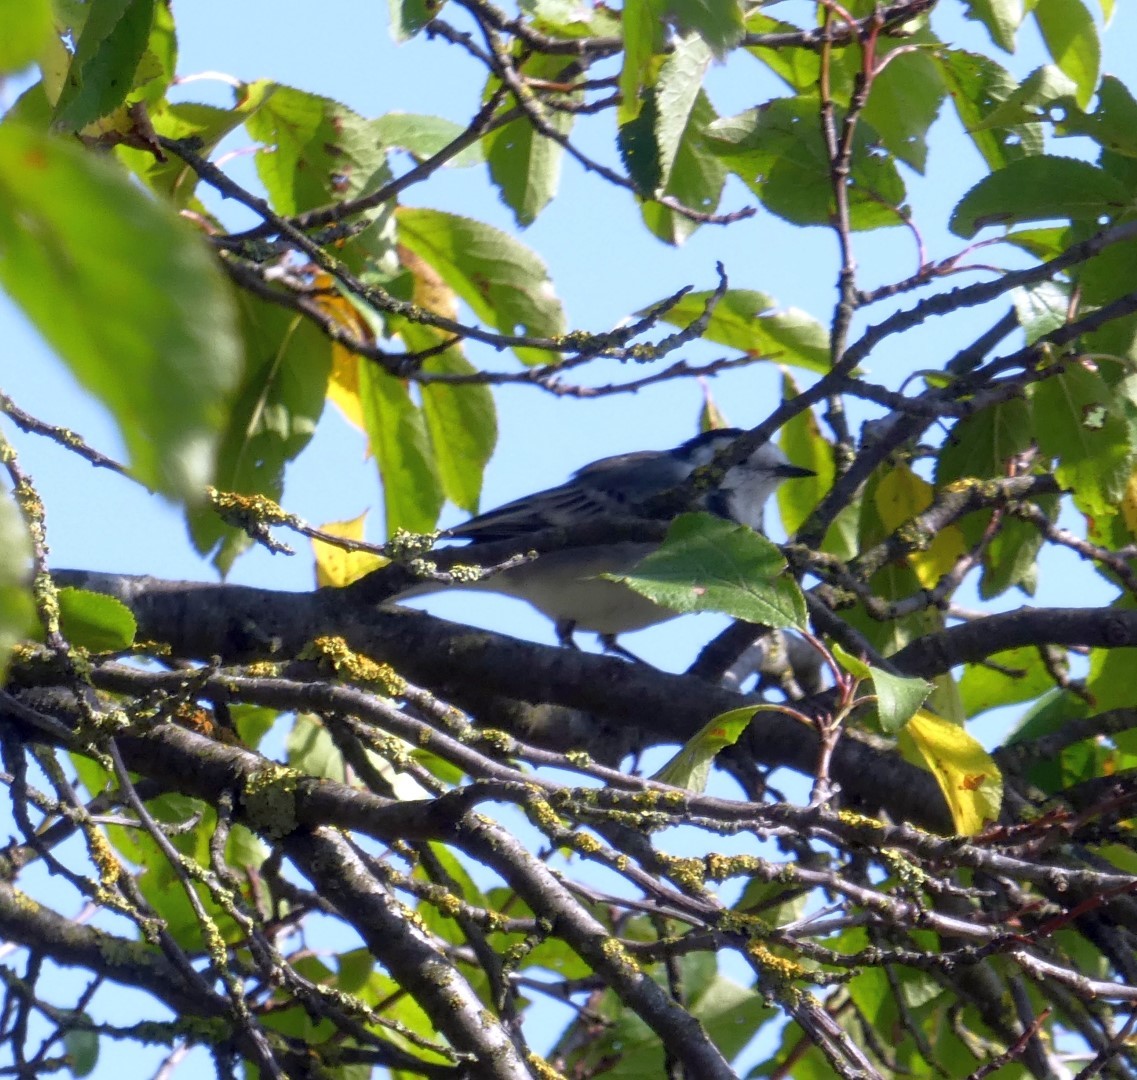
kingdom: Animalia
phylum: Chordata
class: Aves
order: Passeriformes
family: Motacillidae
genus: Motacilla
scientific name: Motacilla alba
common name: White wagtail
